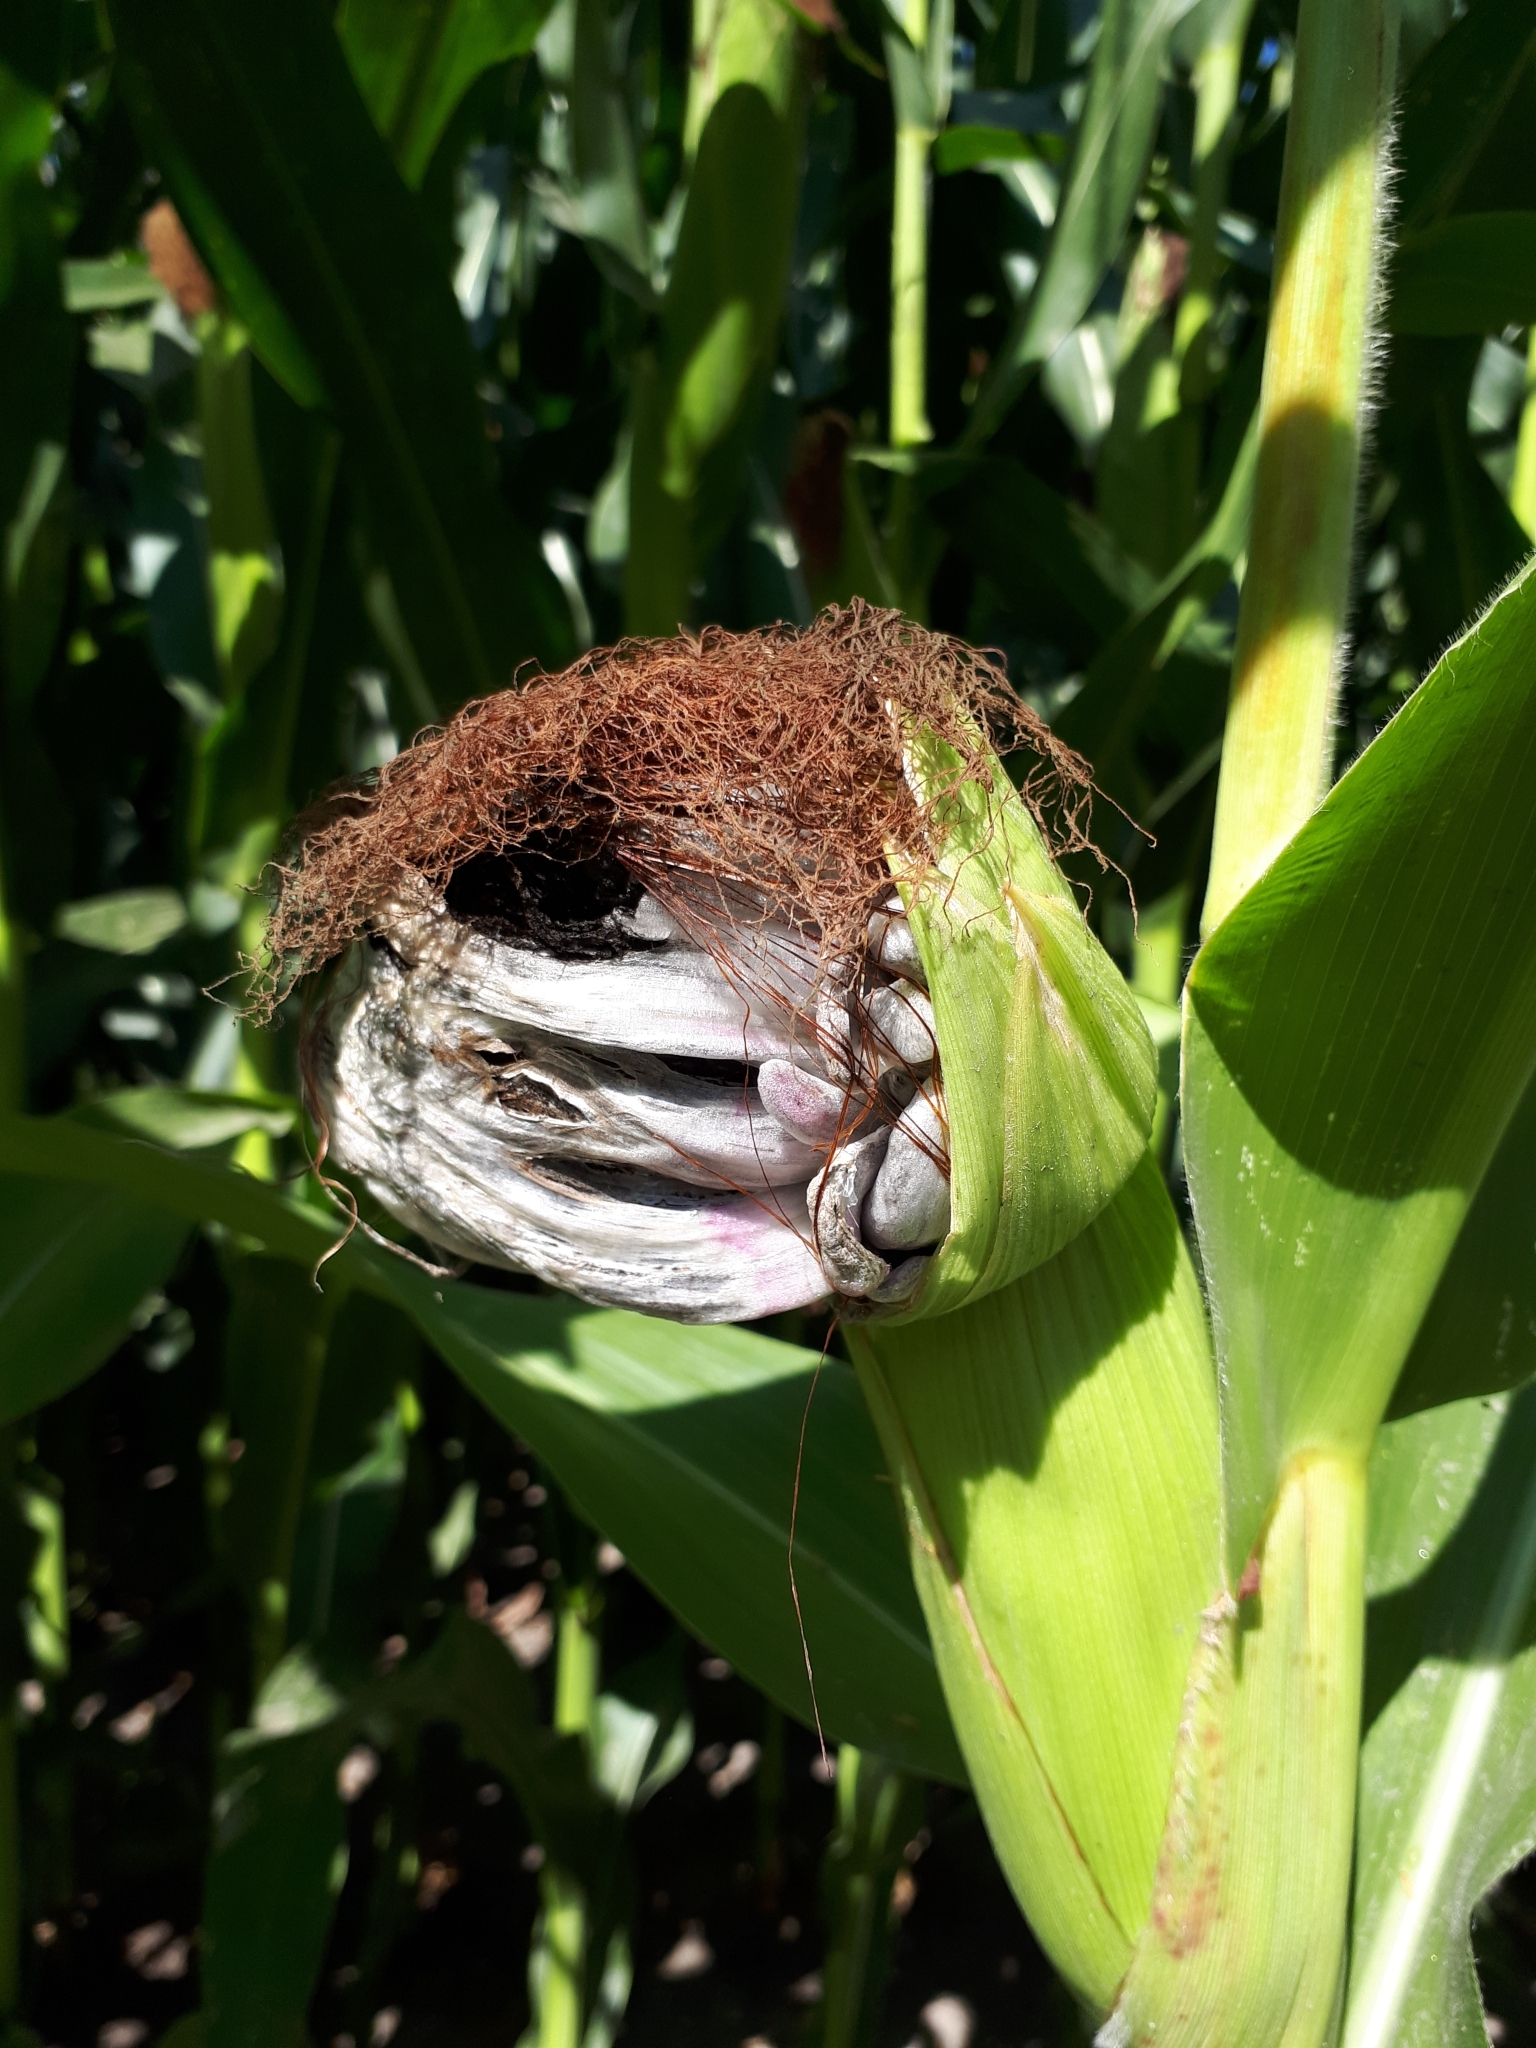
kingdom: Fungi
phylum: Basidiomycota
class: Ustilaginomycetes
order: Ustilaginales
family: Ustilaginaceae
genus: Mycosarcoma
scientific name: Mycosarcoma maydis
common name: Corn smut
